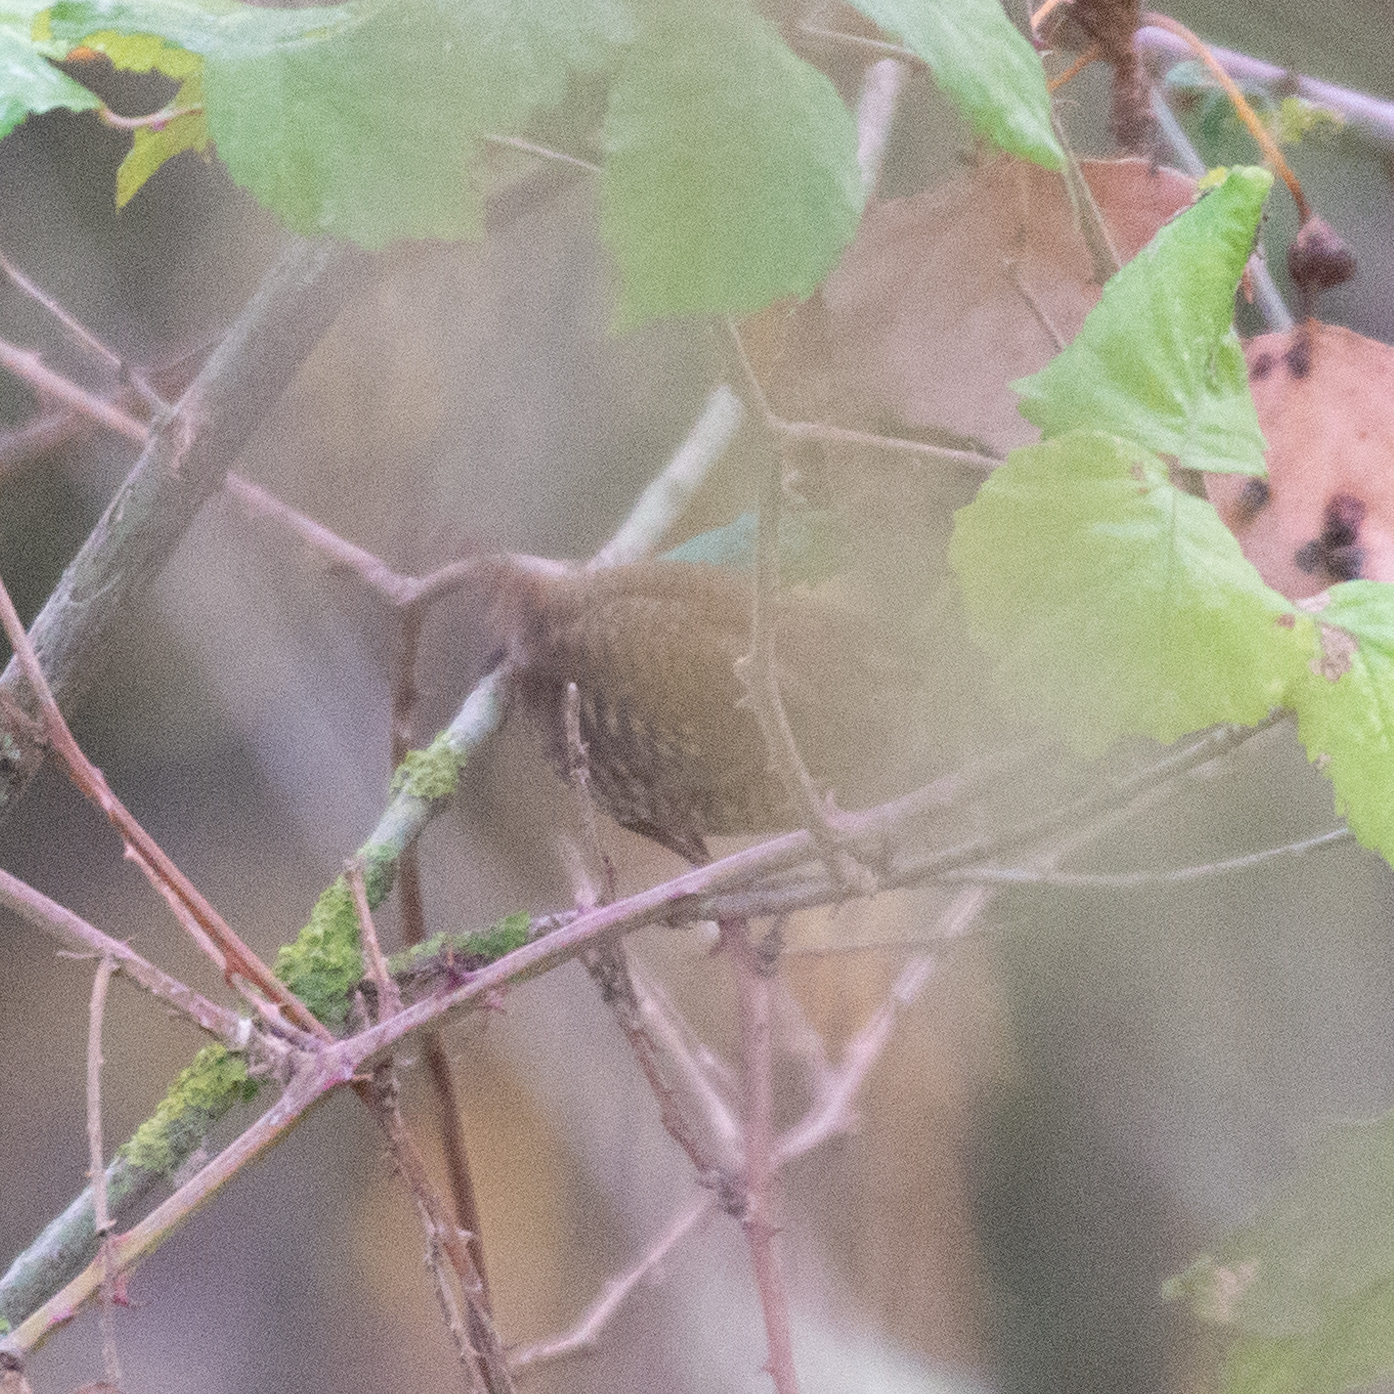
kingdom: Animalia
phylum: Chordata
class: Aves
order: Passeriformes
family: Troglodytidae
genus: Troglodytes
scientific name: Troglodytes troglodytes
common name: Eurasian wren
